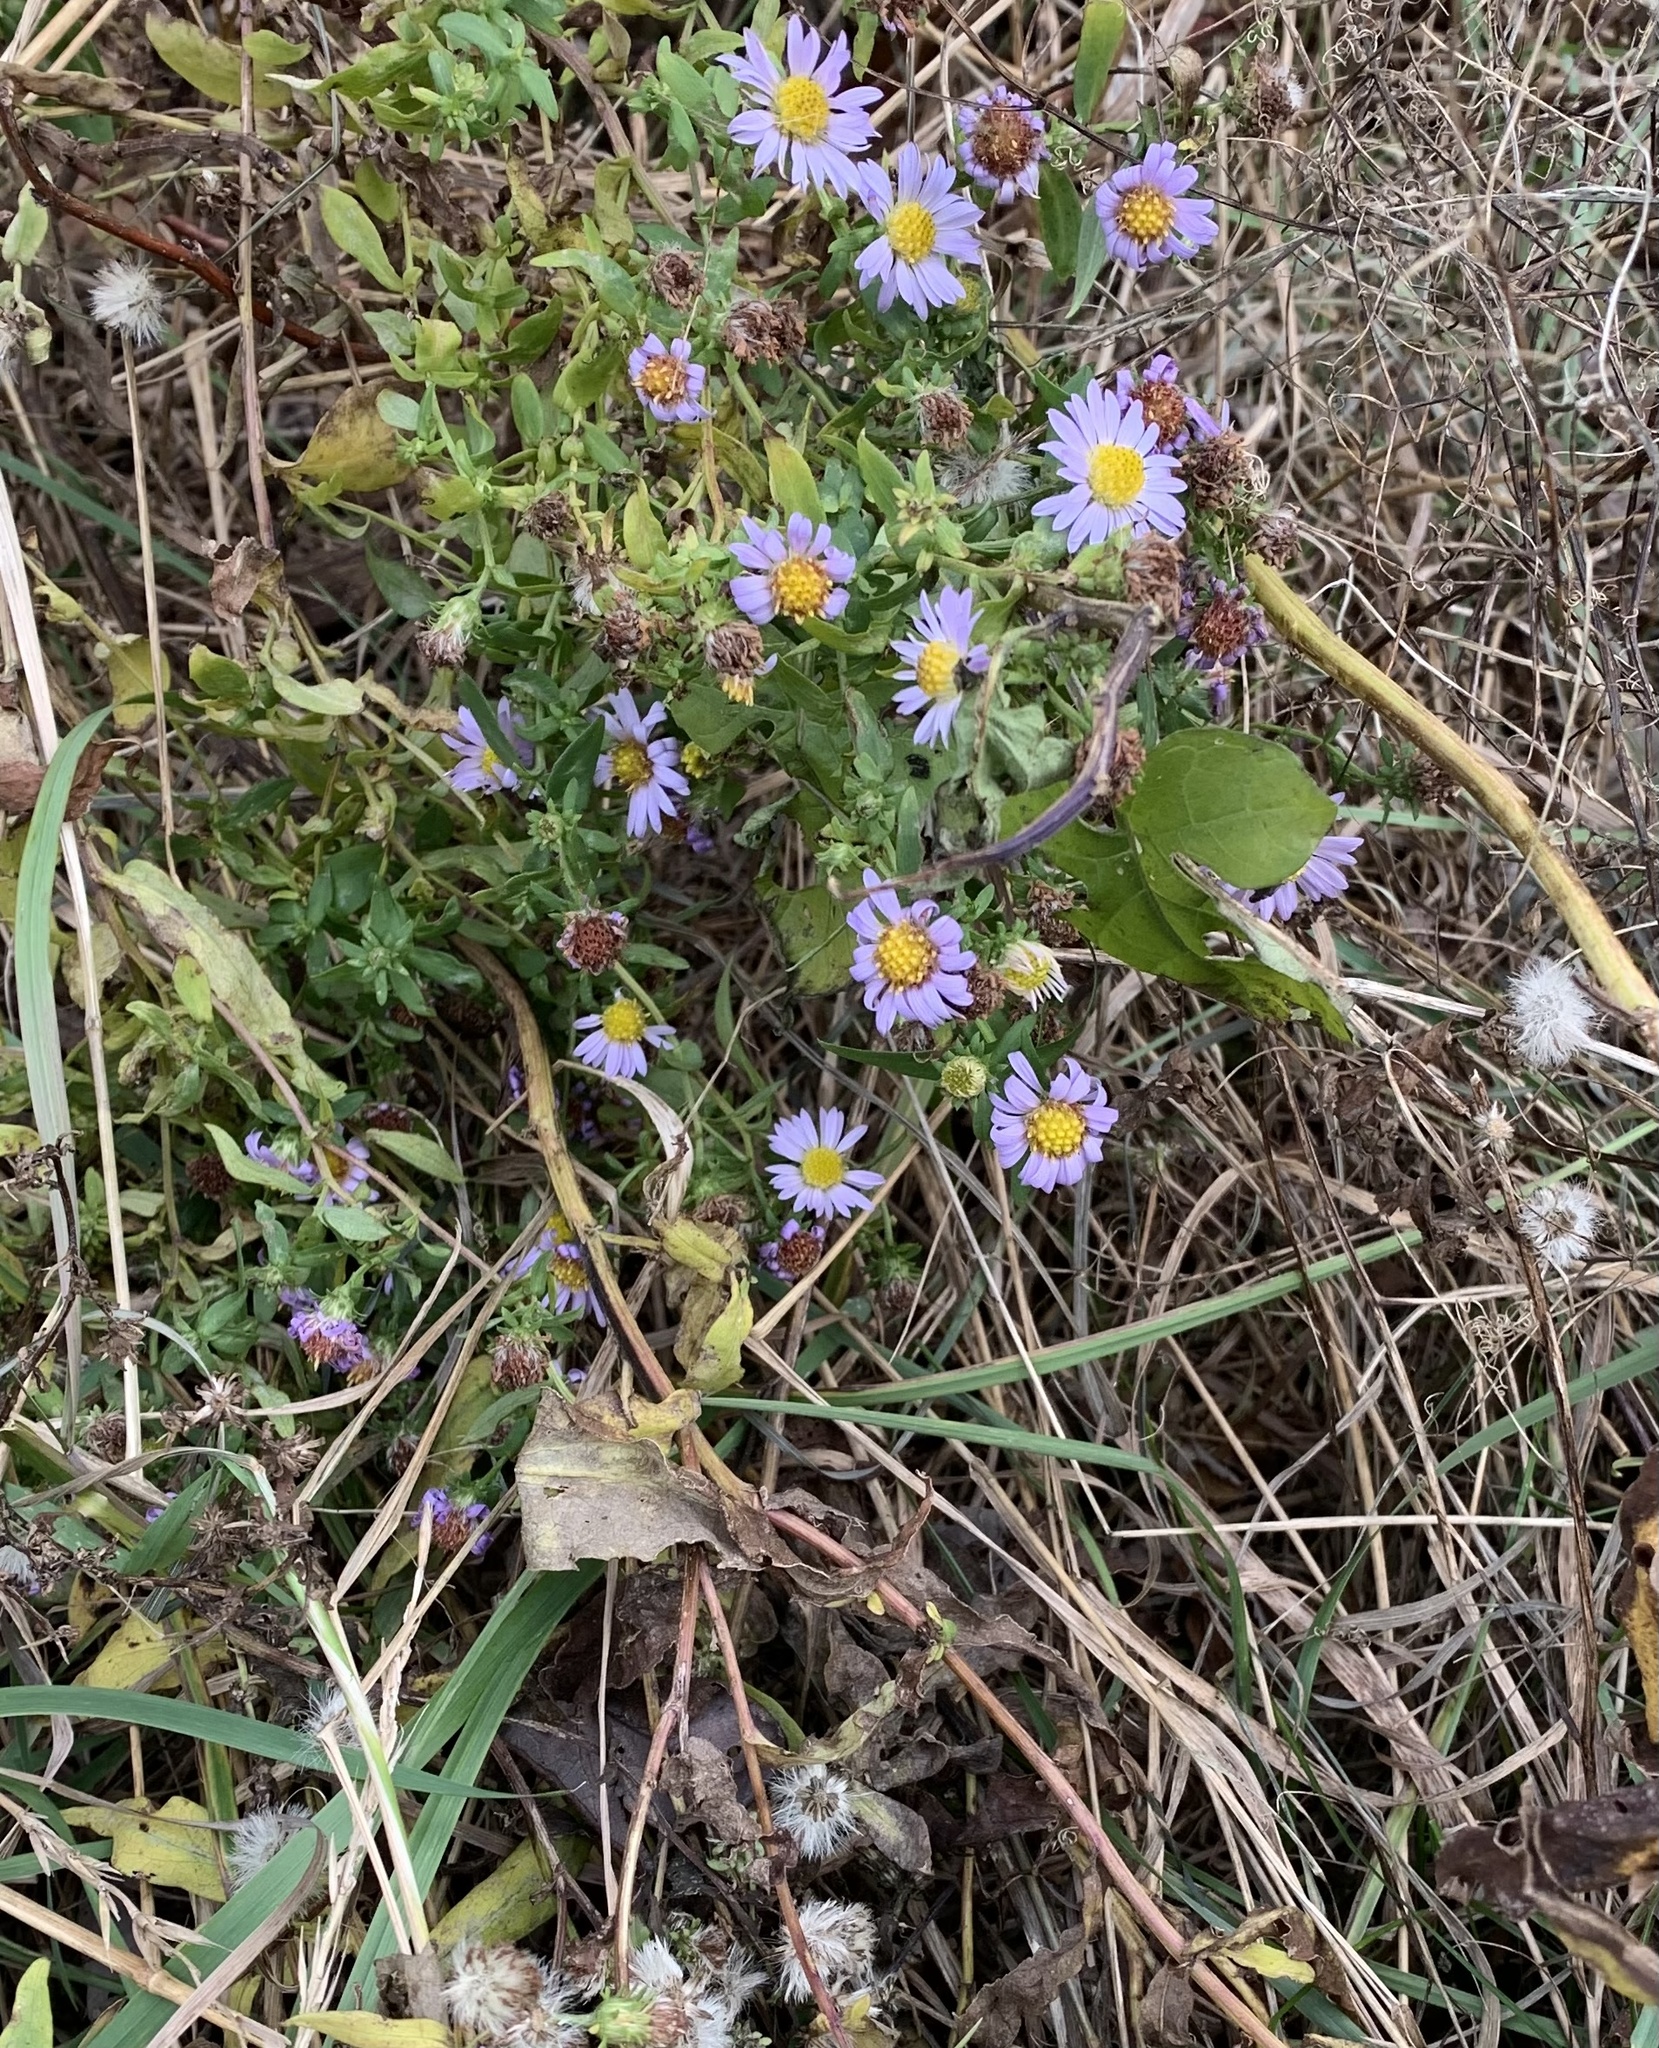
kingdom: Plantae
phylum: Tracheophyta
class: Magnoliopsida
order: Asterales
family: Asteraceae
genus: Symphyotrichum
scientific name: Symphyotrichum novi-belgii
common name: Michaelmas daisy
